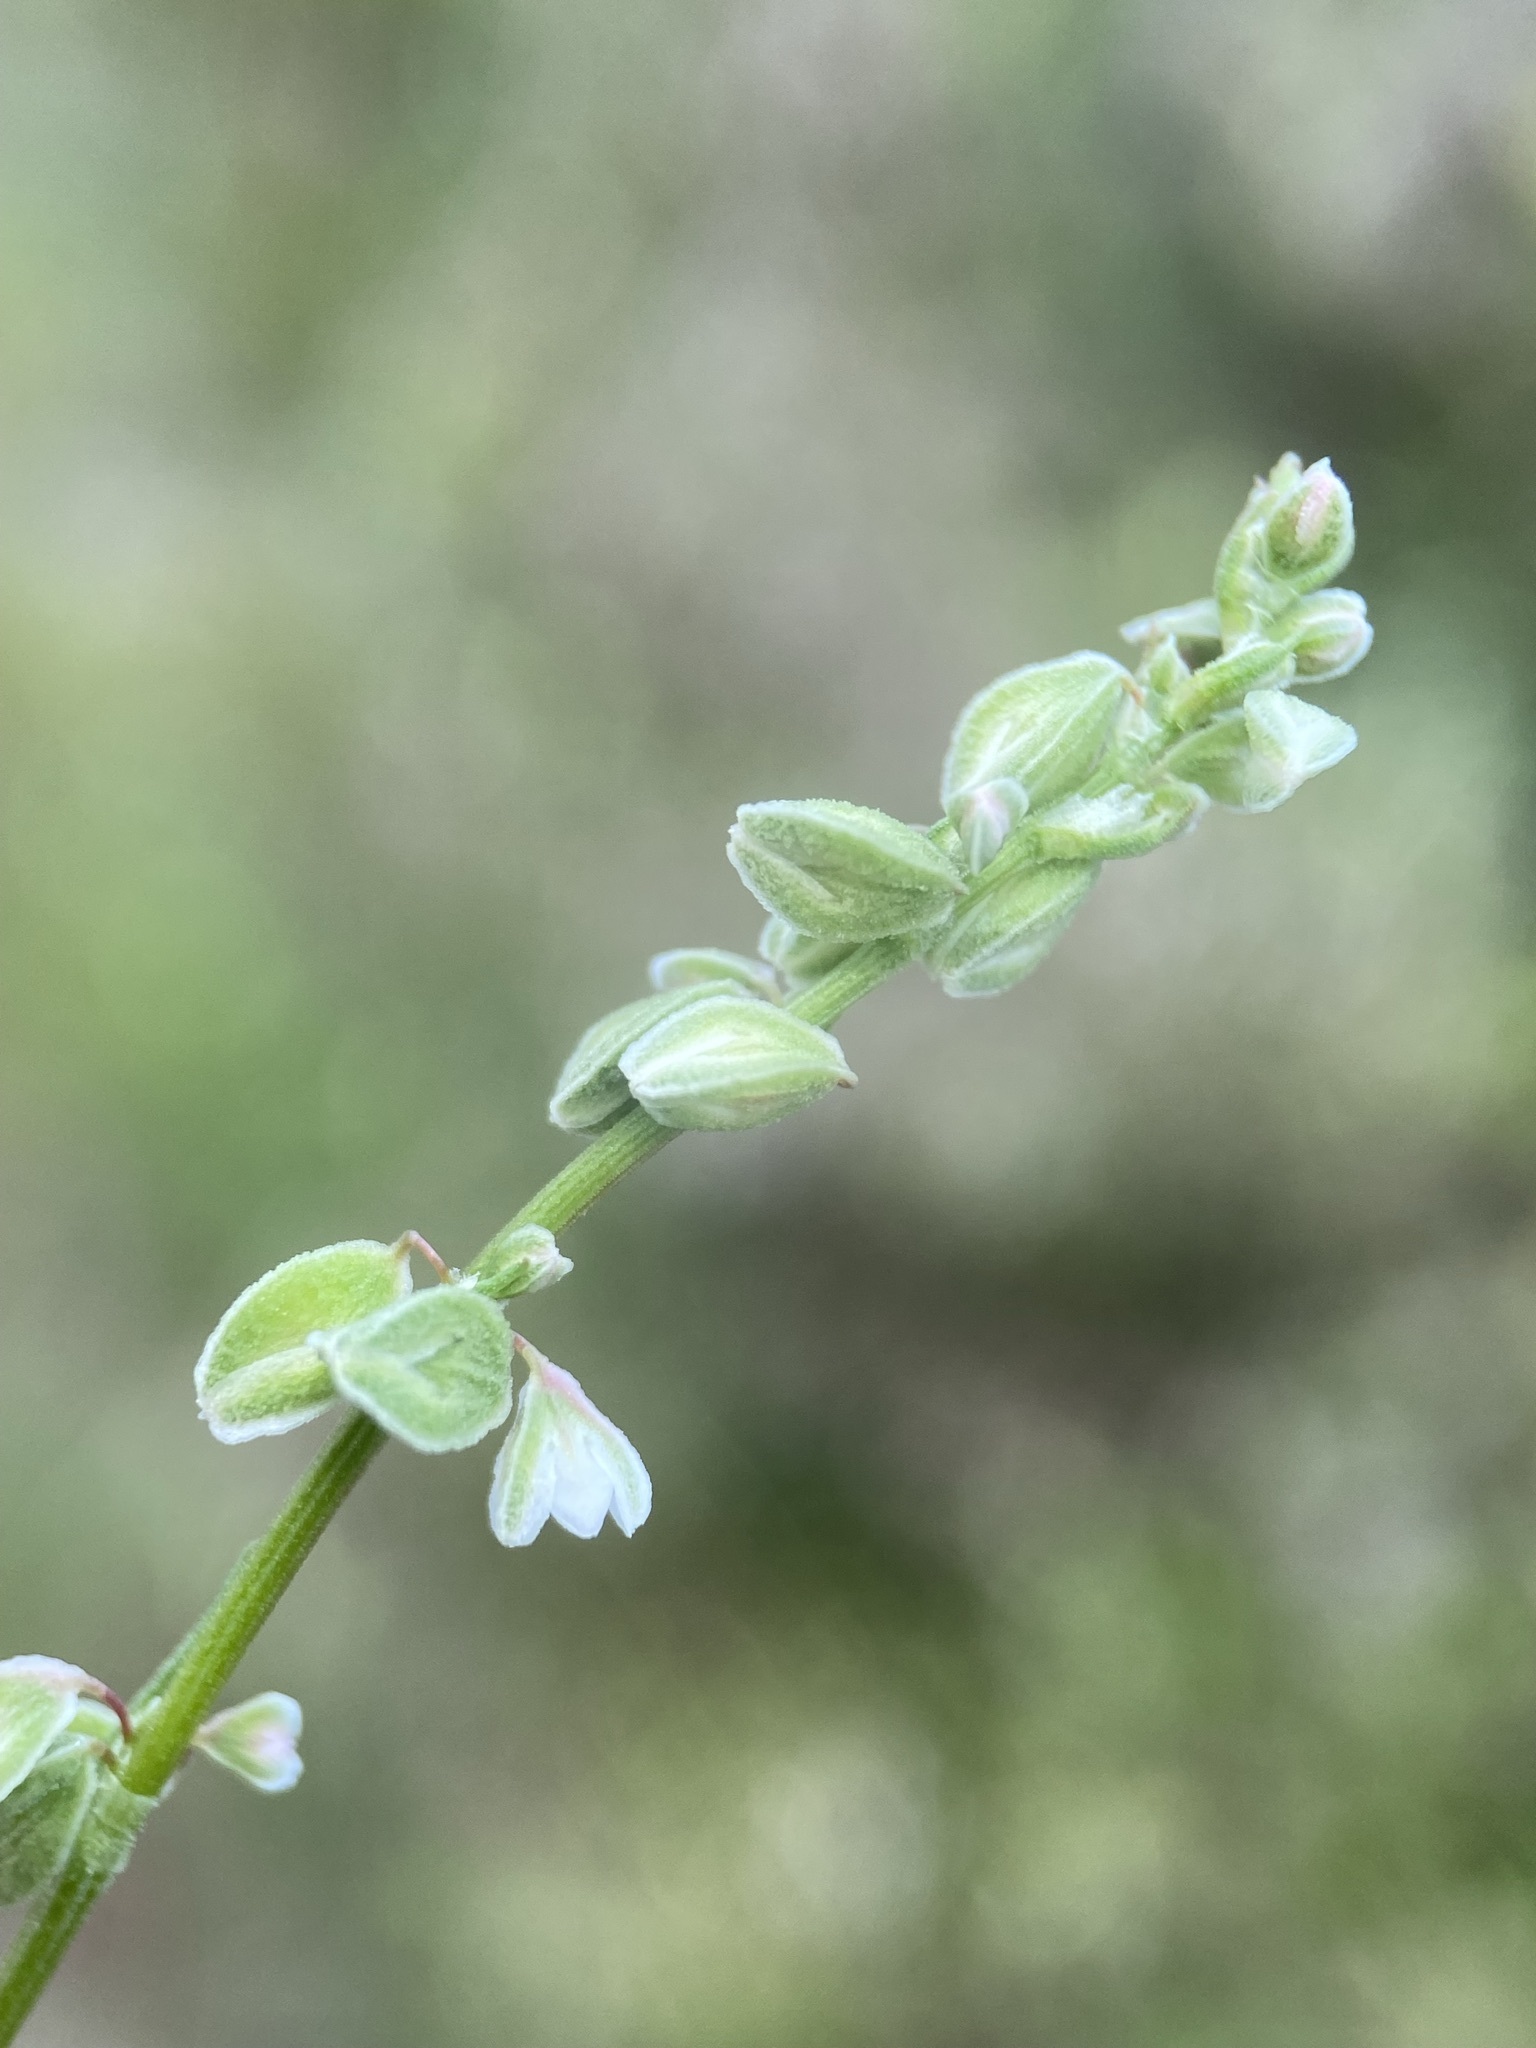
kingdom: Plantae
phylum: Tracheophyta
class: Magnoliopsida
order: Caryophyllales
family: Polygonaceae
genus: Fallopia
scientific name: Fallopia scandens
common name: Climbing false buckwheat
